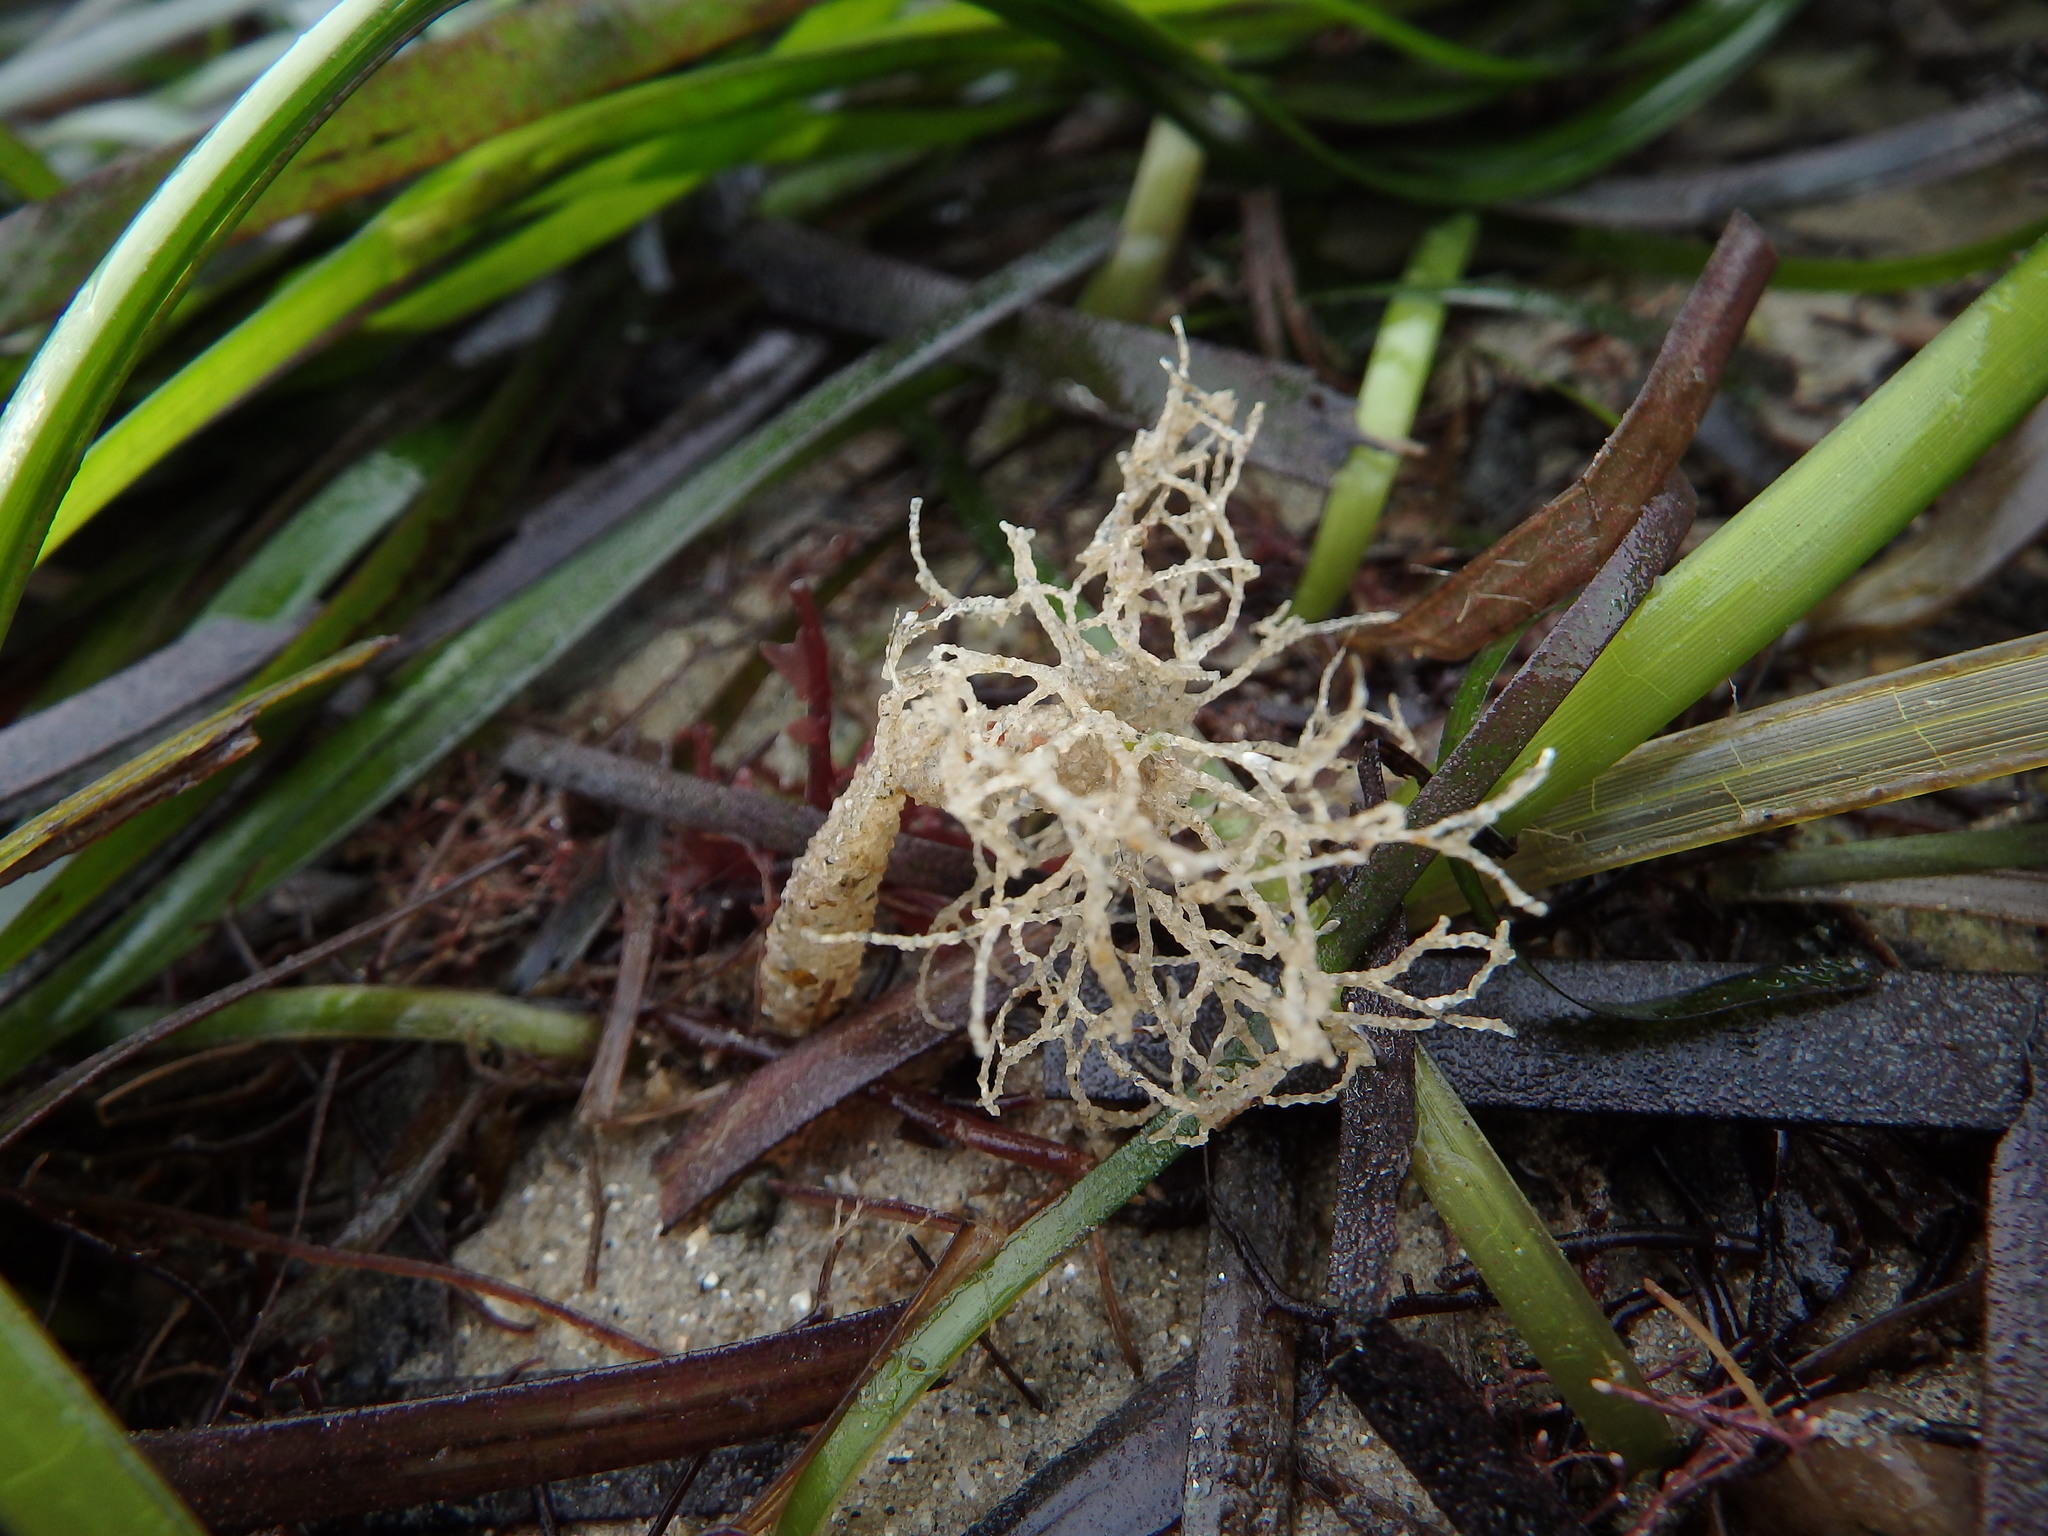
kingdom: Animalia
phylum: Annelida
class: Polychaeta
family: Terebellidae
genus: Lanice
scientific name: Lanice conchilega
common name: Sand mason
